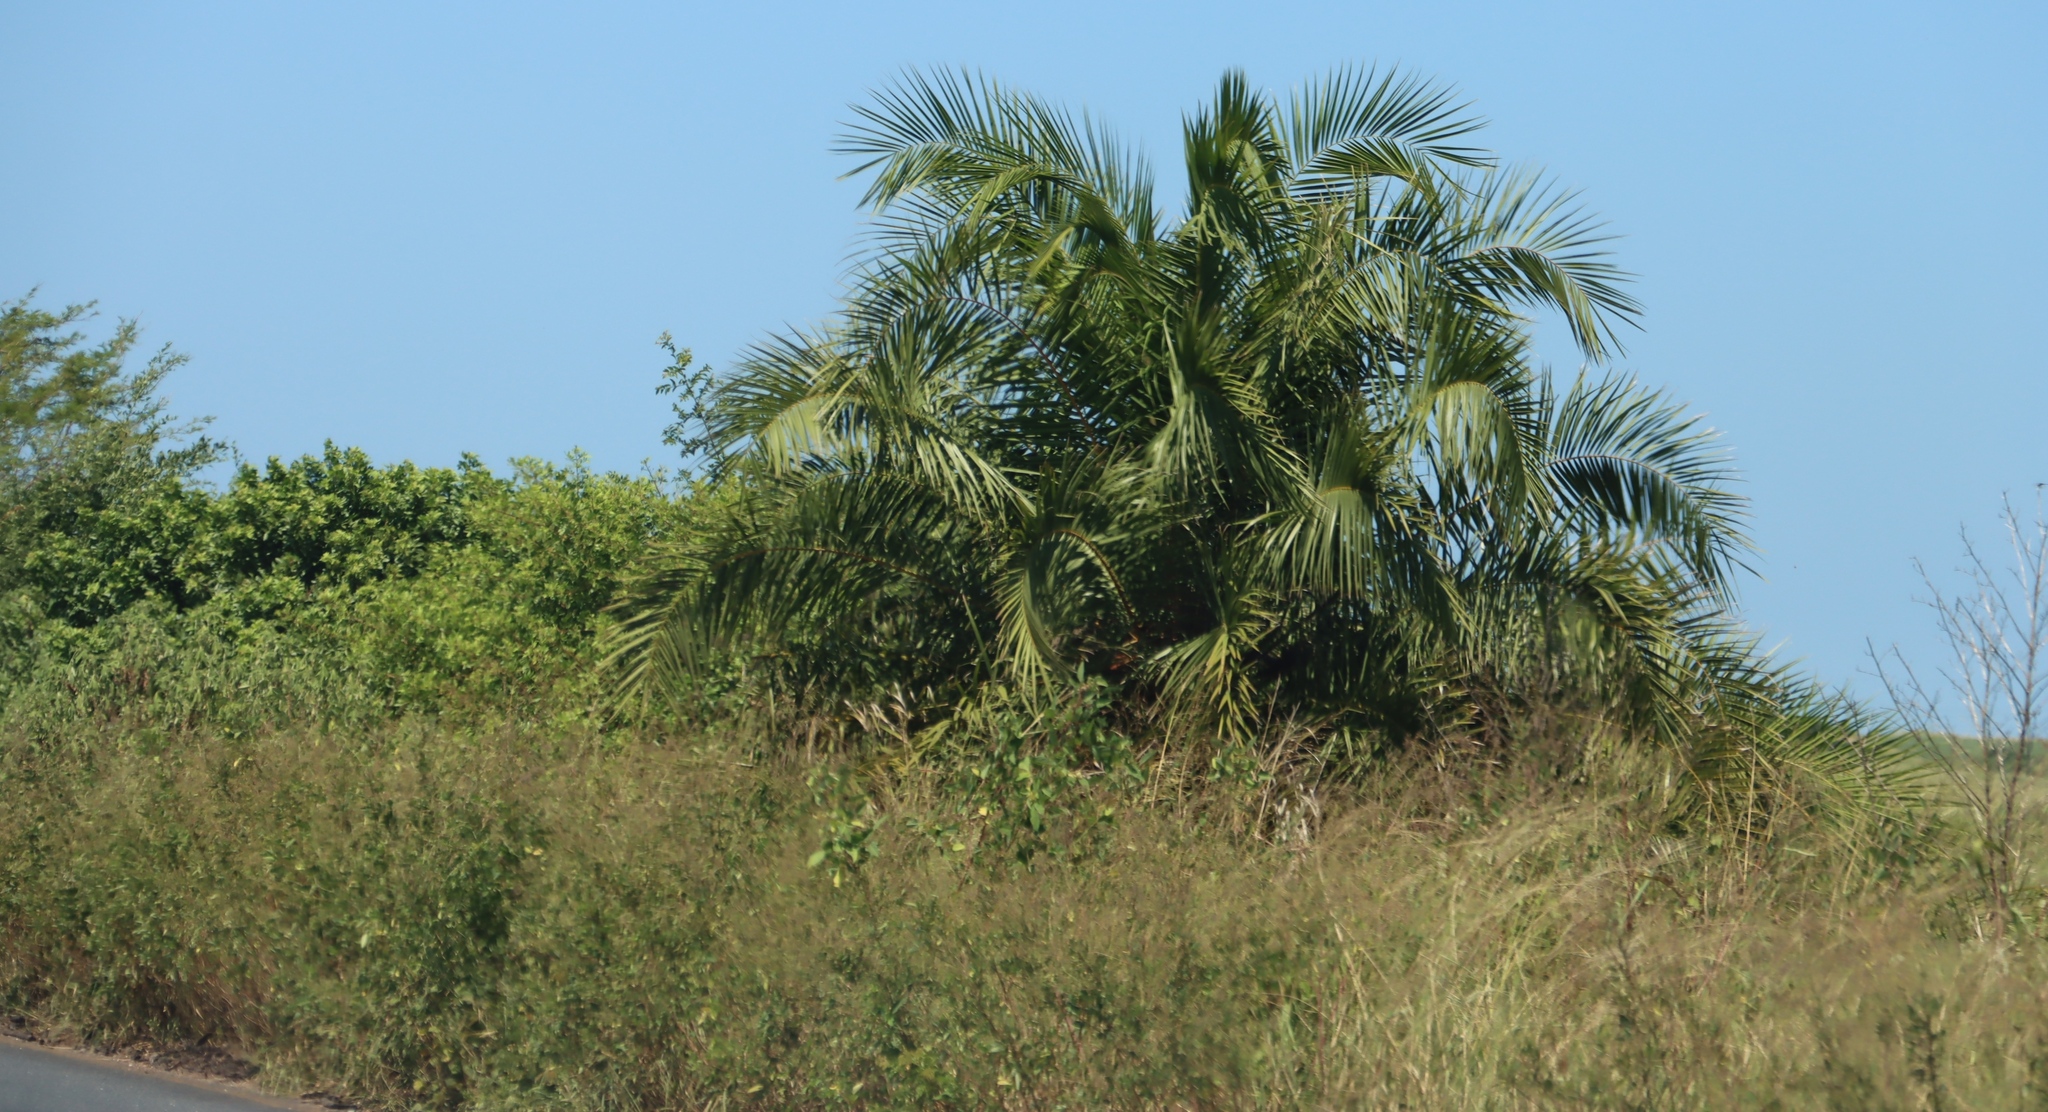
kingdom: Plantae
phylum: Tracheophyta
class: Liliopsida
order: Arecales
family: Arecaceae
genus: Phoenix
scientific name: Phoenix reclinata
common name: Senegal date palm
